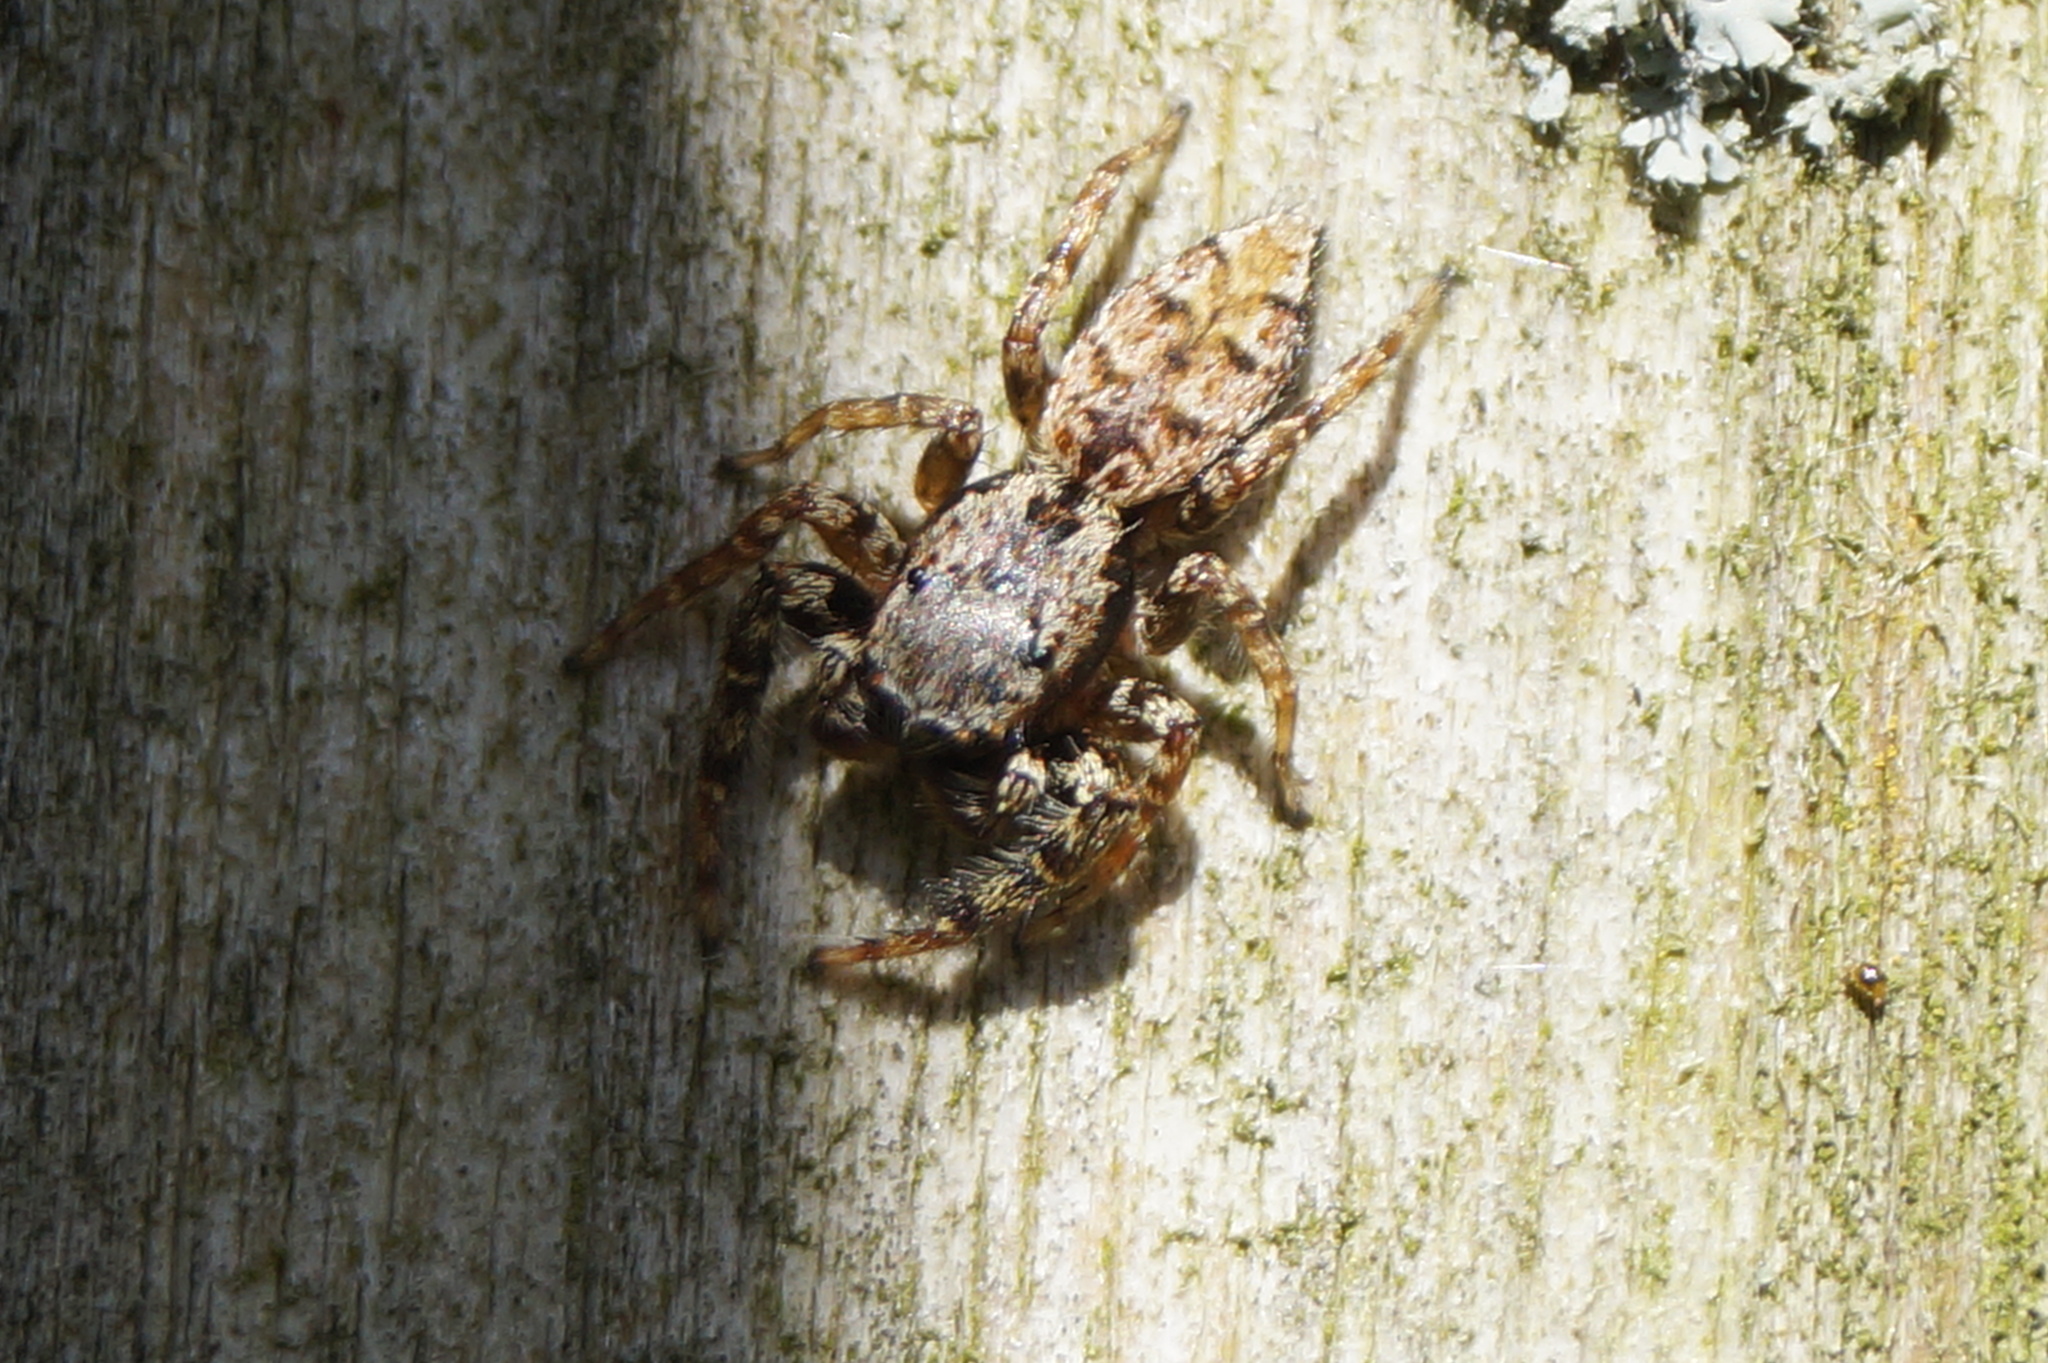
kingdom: Animalia
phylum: Arthropoda
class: Arachnida
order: Araneae
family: Salticidae
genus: Marpissa
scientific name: Marpissa muscosa
